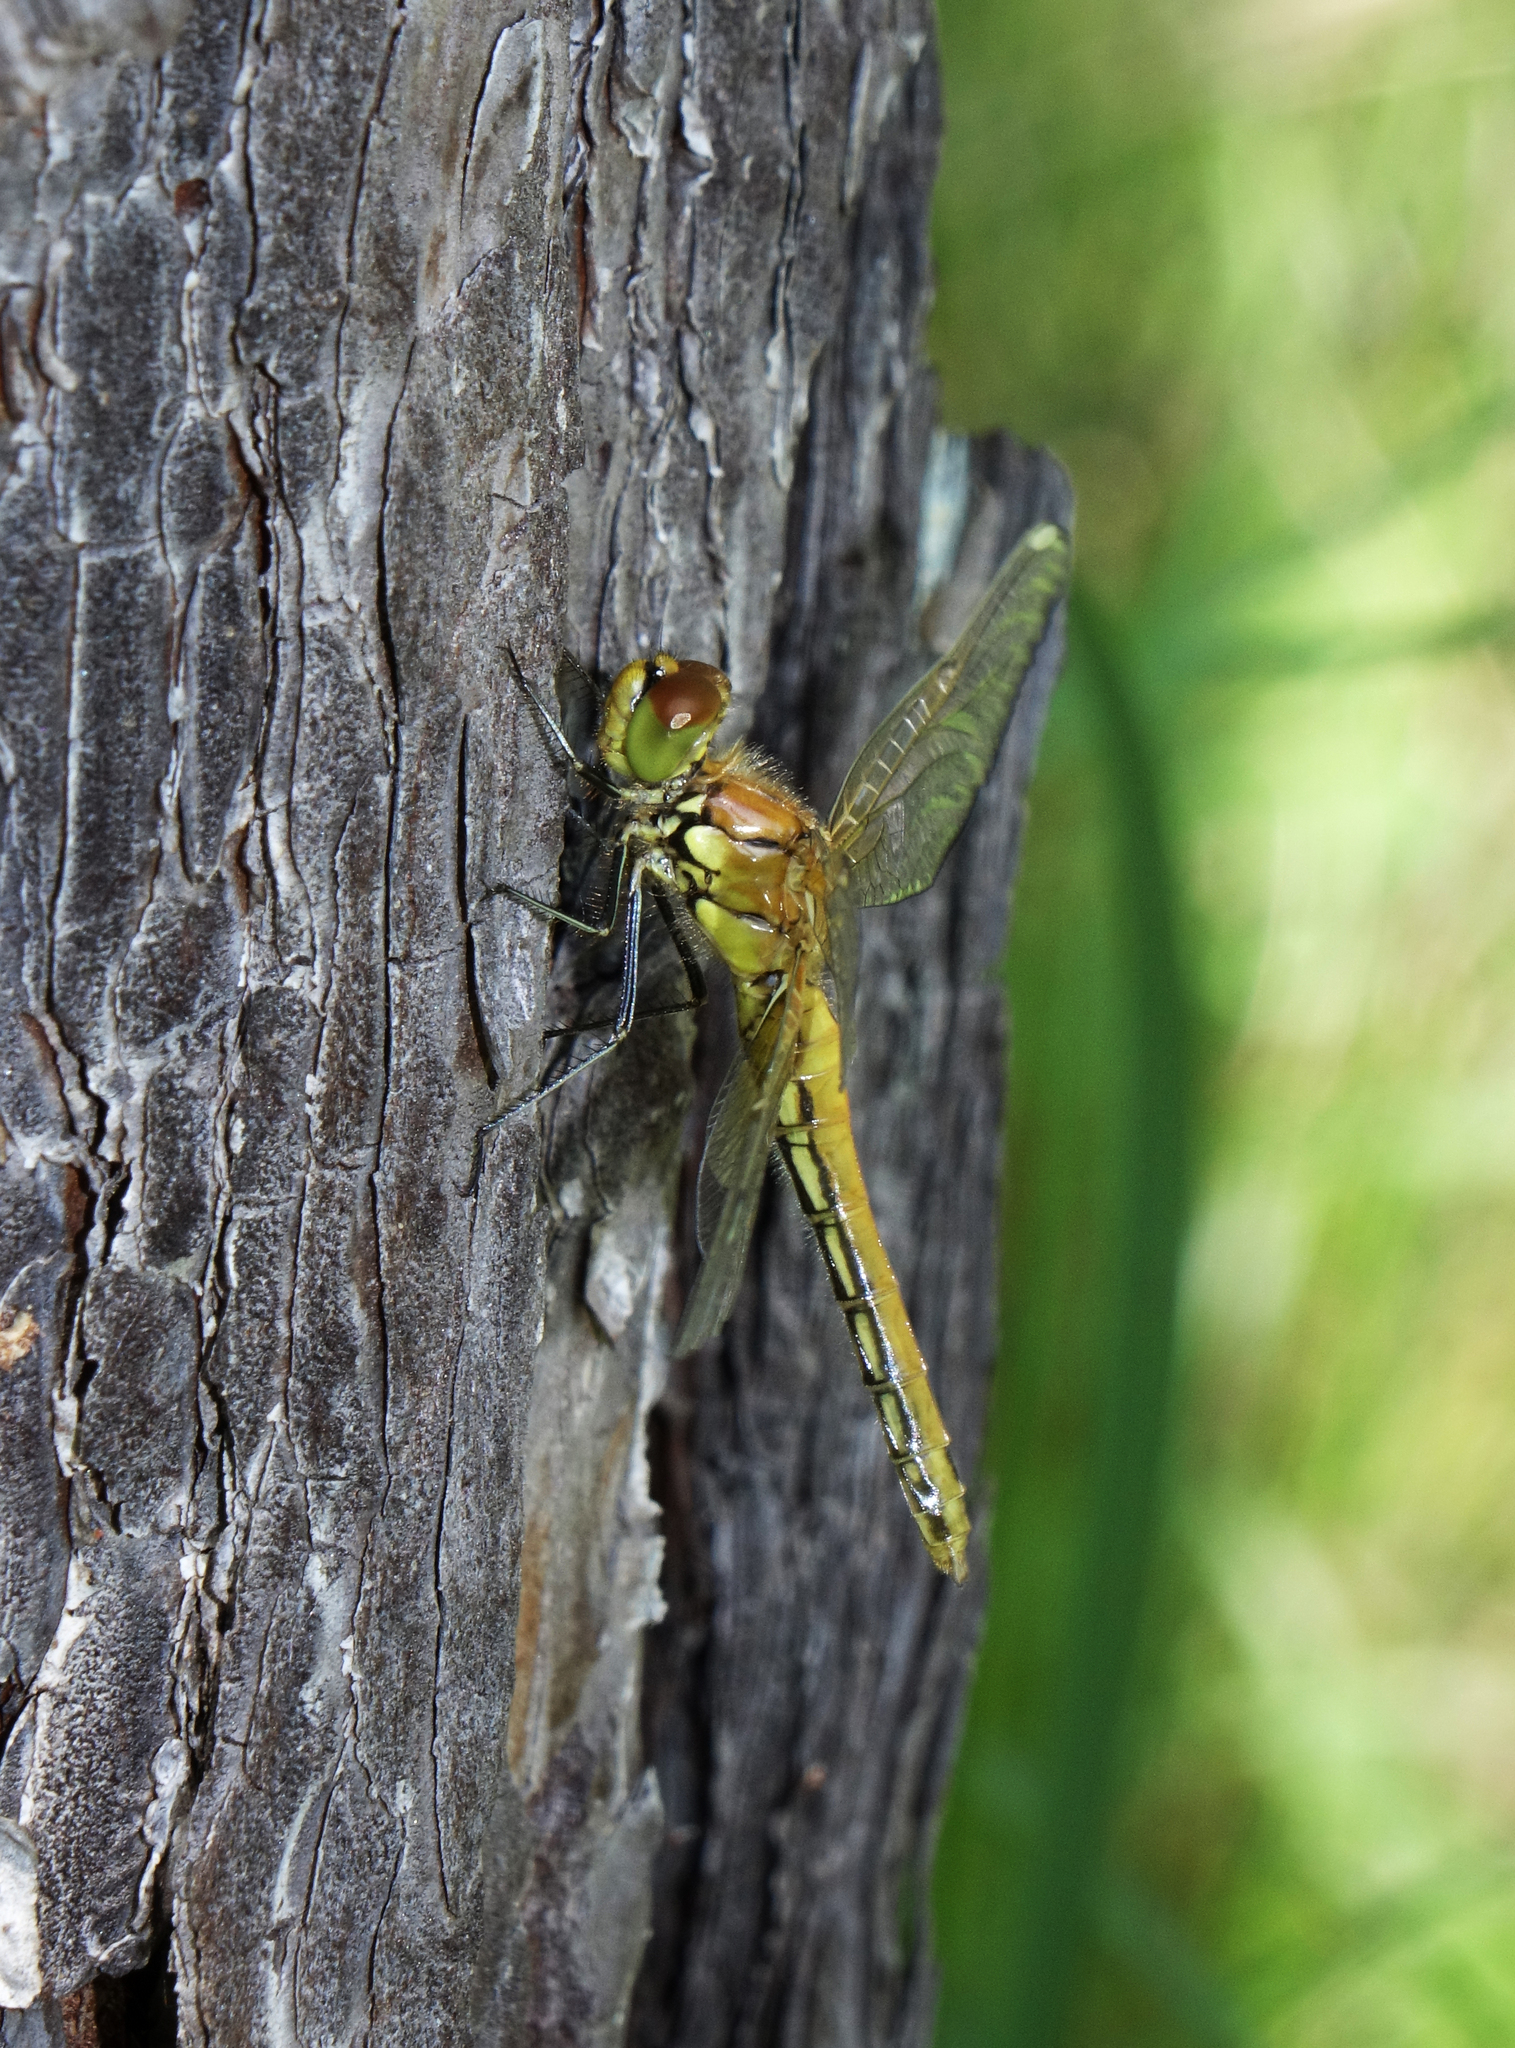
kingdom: Animalia
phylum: Arthropoda
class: Insecta
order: Odonata
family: Libellulidae
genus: Sympetrum
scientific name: Sympetrum flaveolum
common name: Yellow-winged darter
